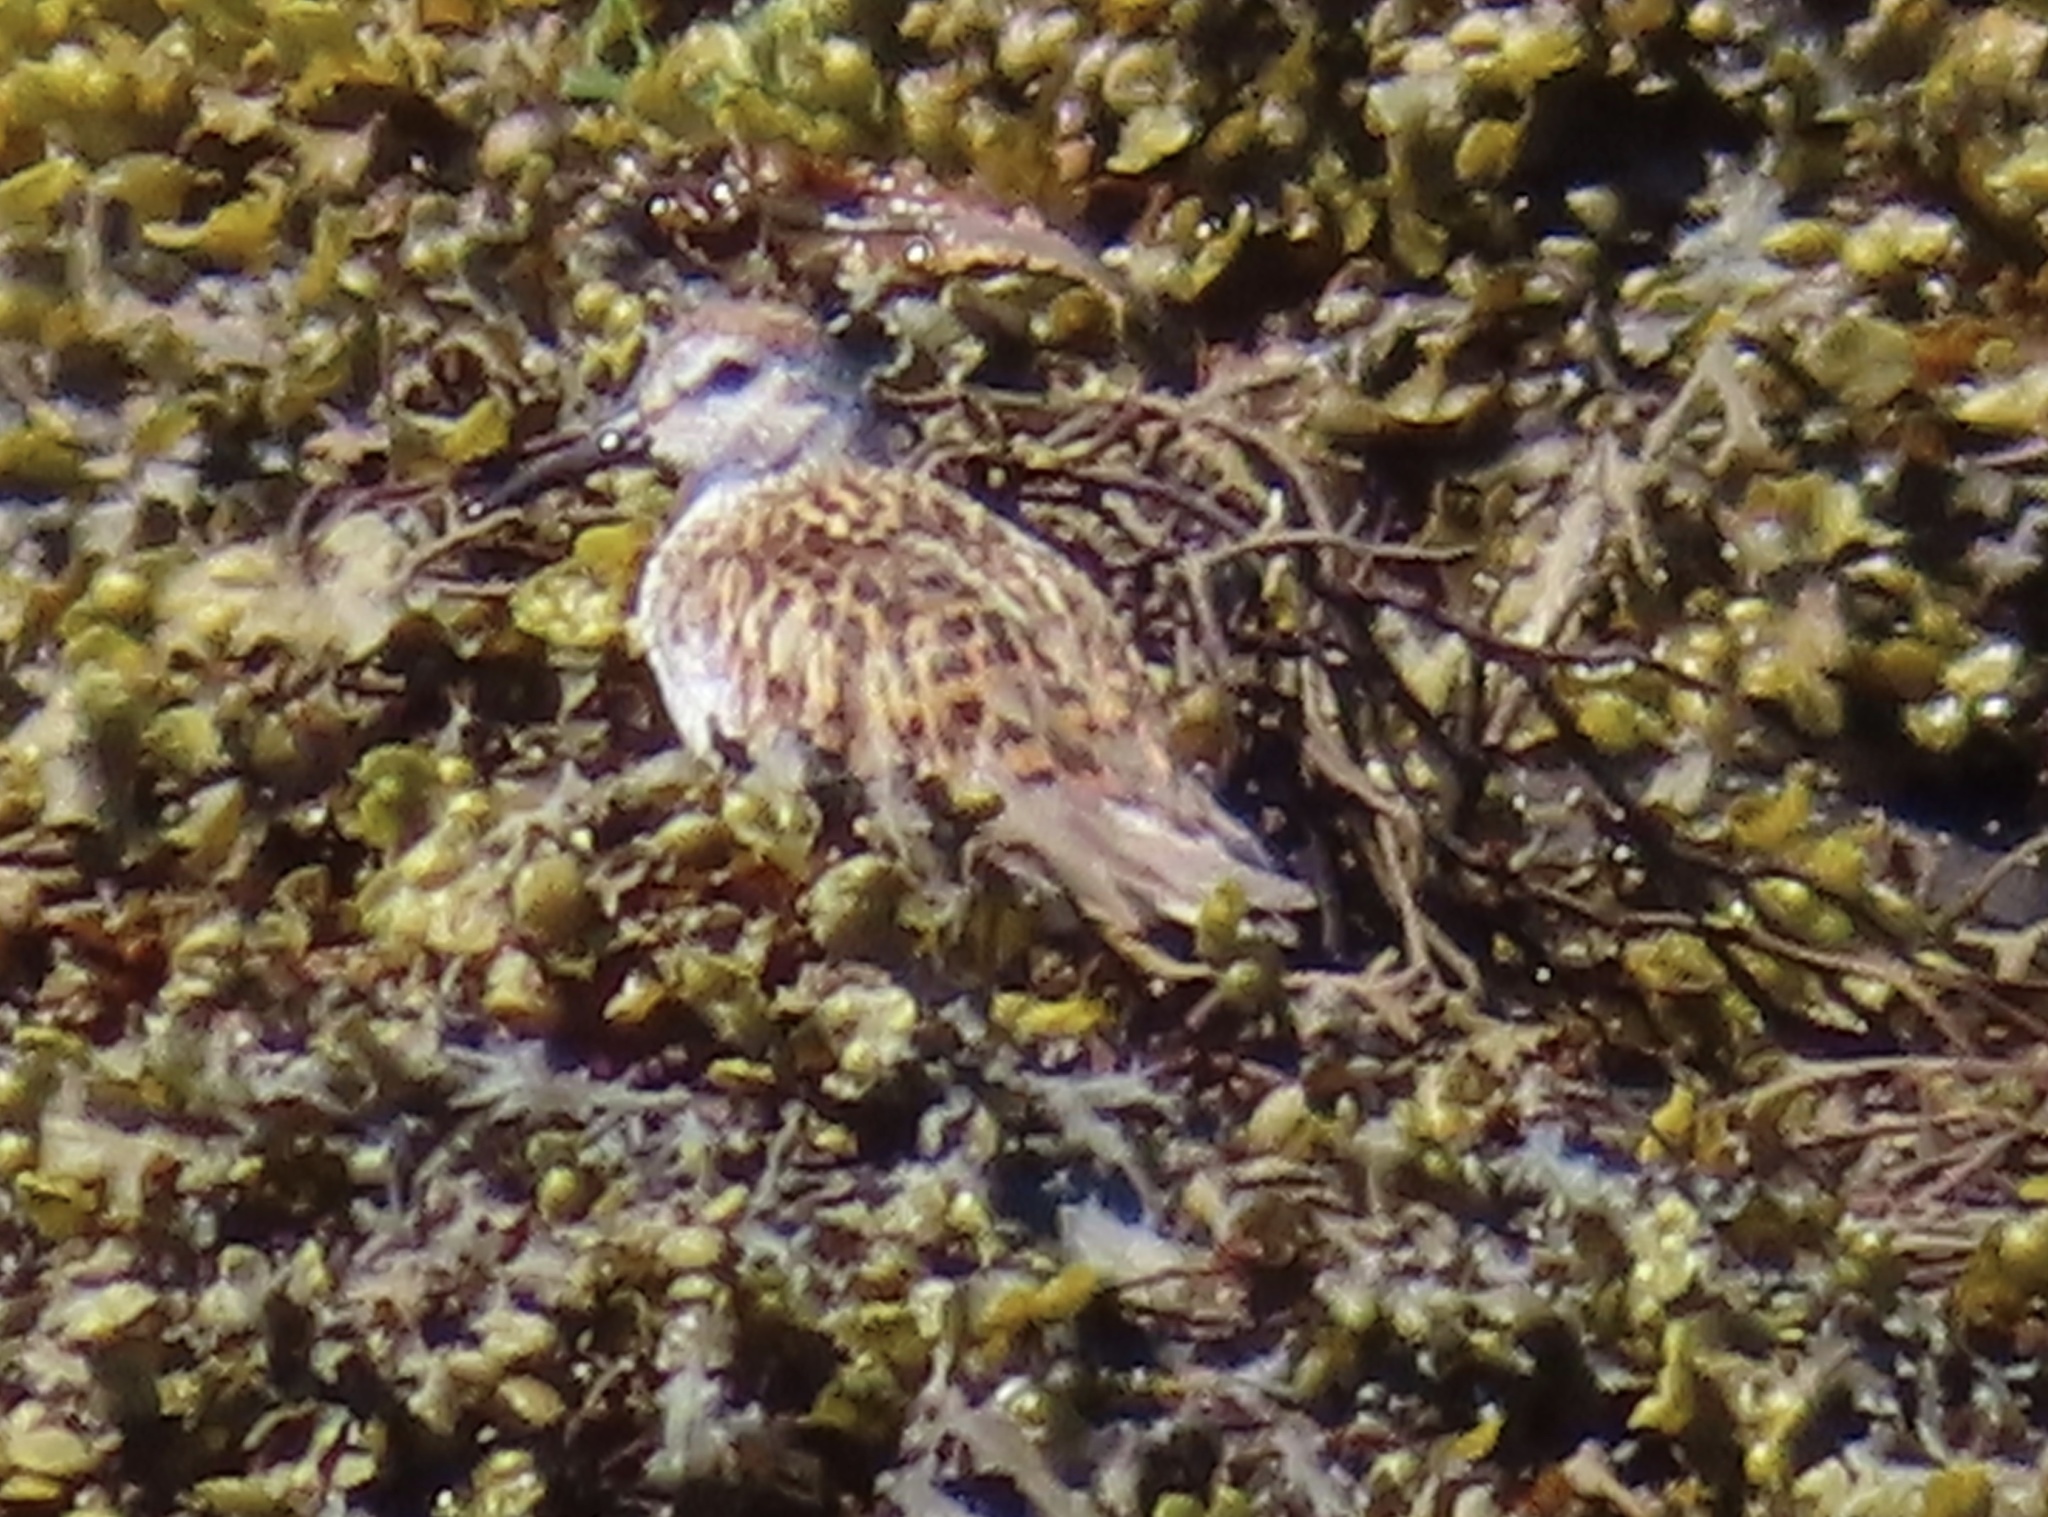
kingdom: Animalia
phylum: Chordata
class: Aves
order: Charadriiformes
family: Scolopacidae
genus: Calidris
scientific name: Calidris alpina
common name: Dunlin
